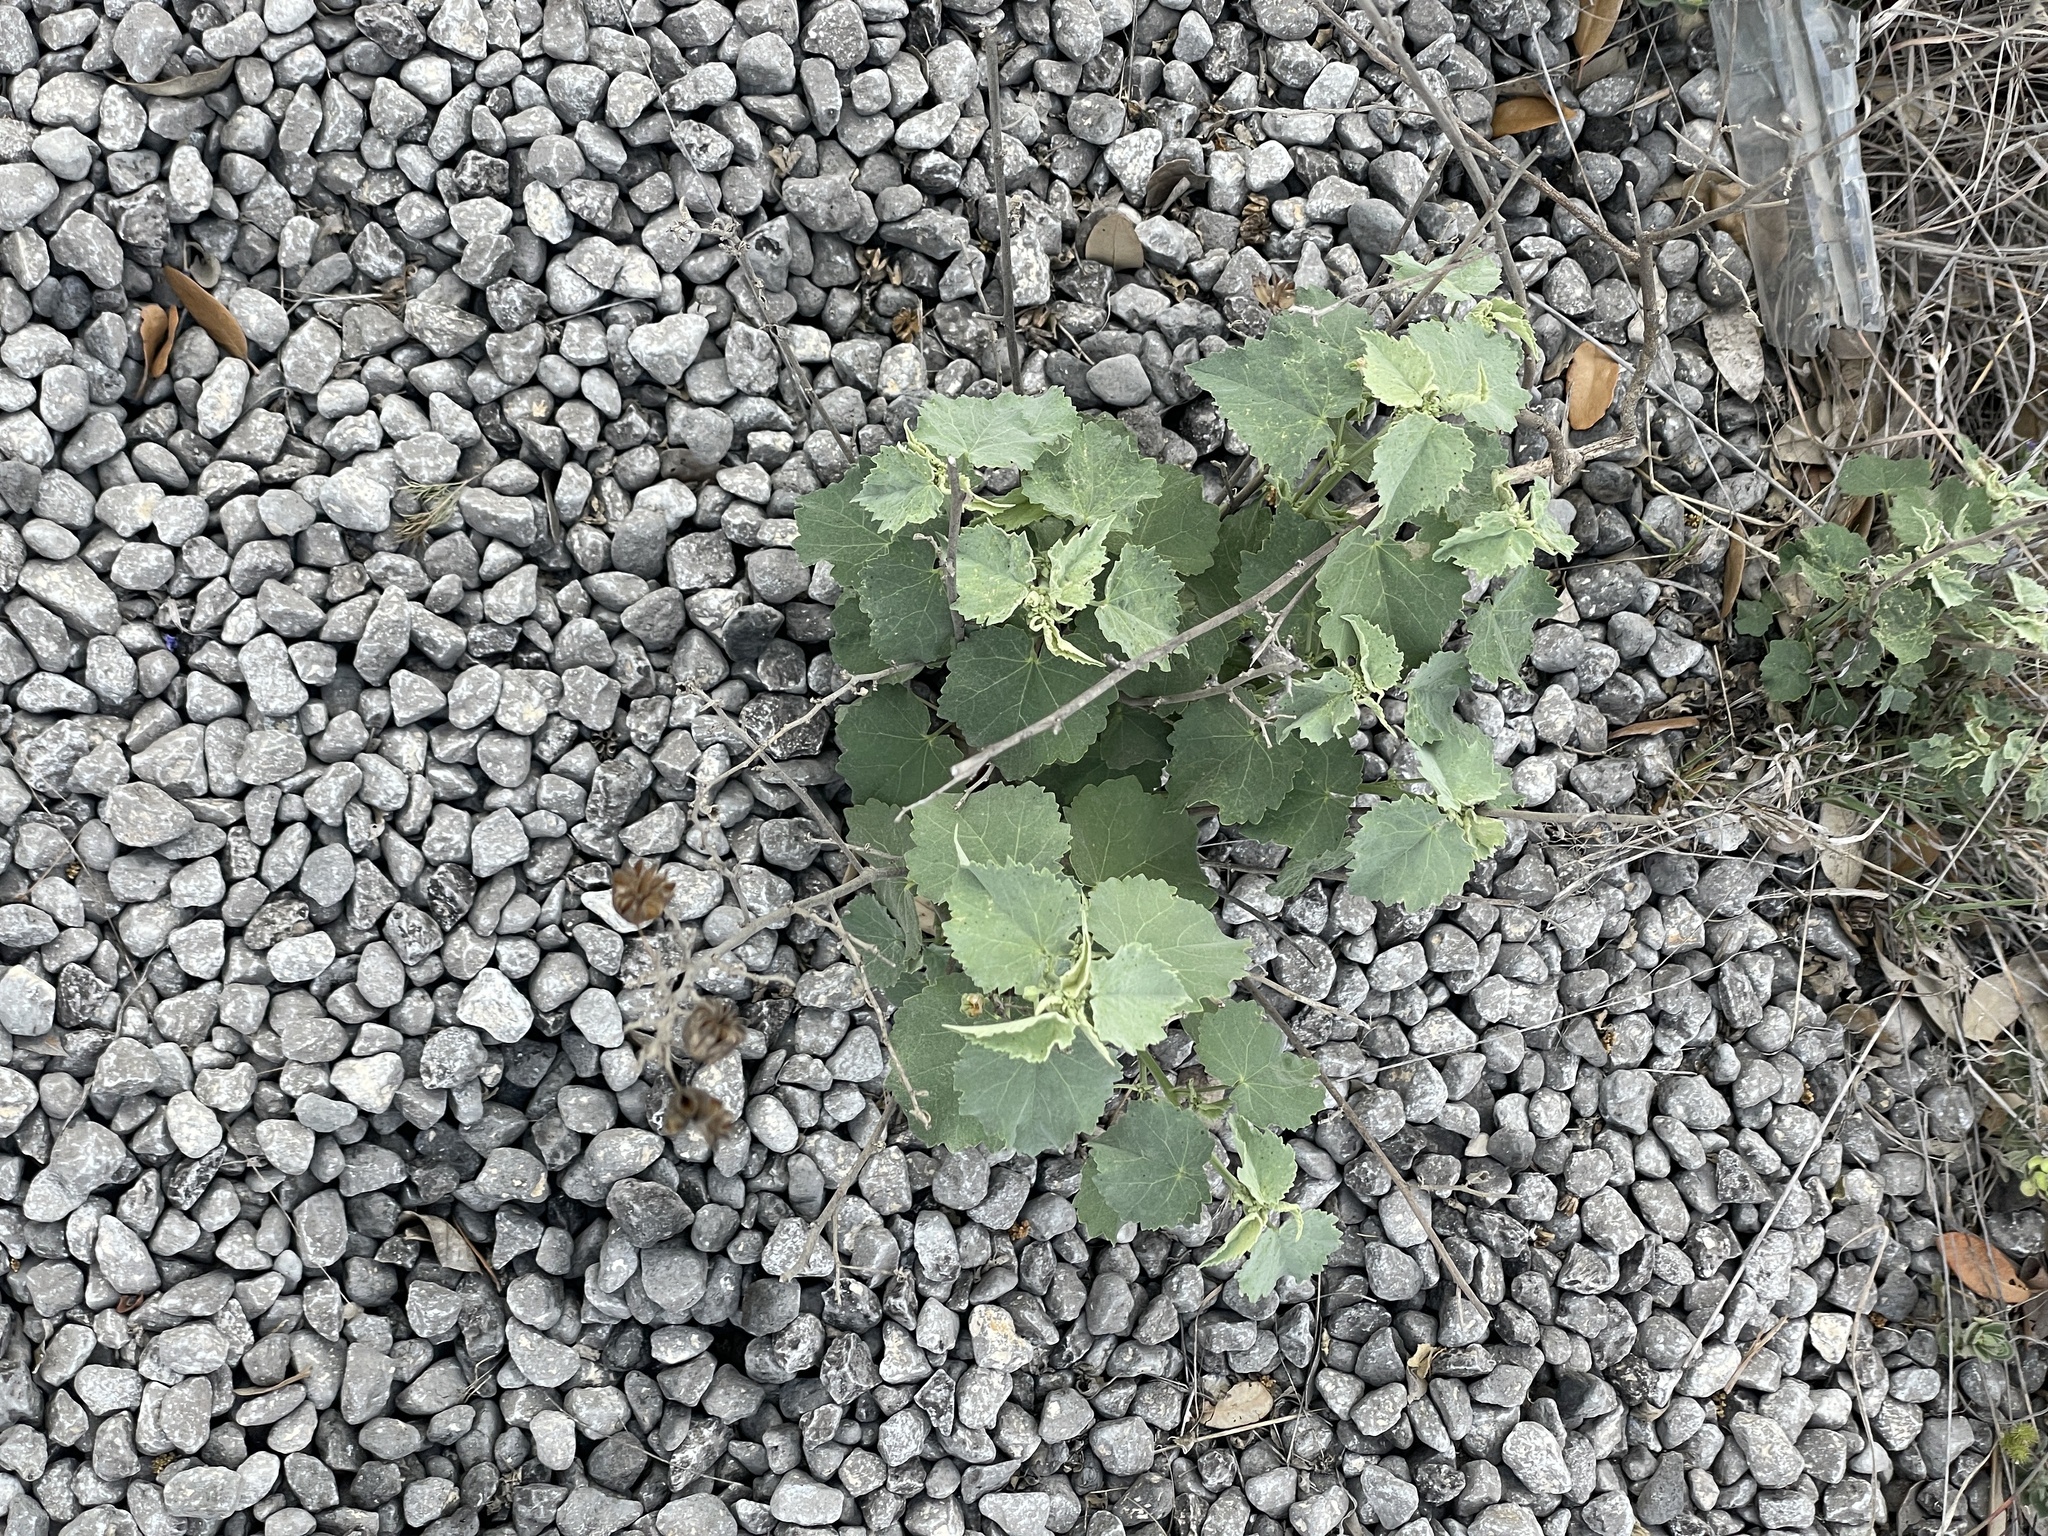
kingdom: Plantae
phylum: Tracheophyta
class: Magnoliopsida
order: Malvales
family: Malvaceae
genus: Abutilon
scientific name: Abutilon fruticosum
